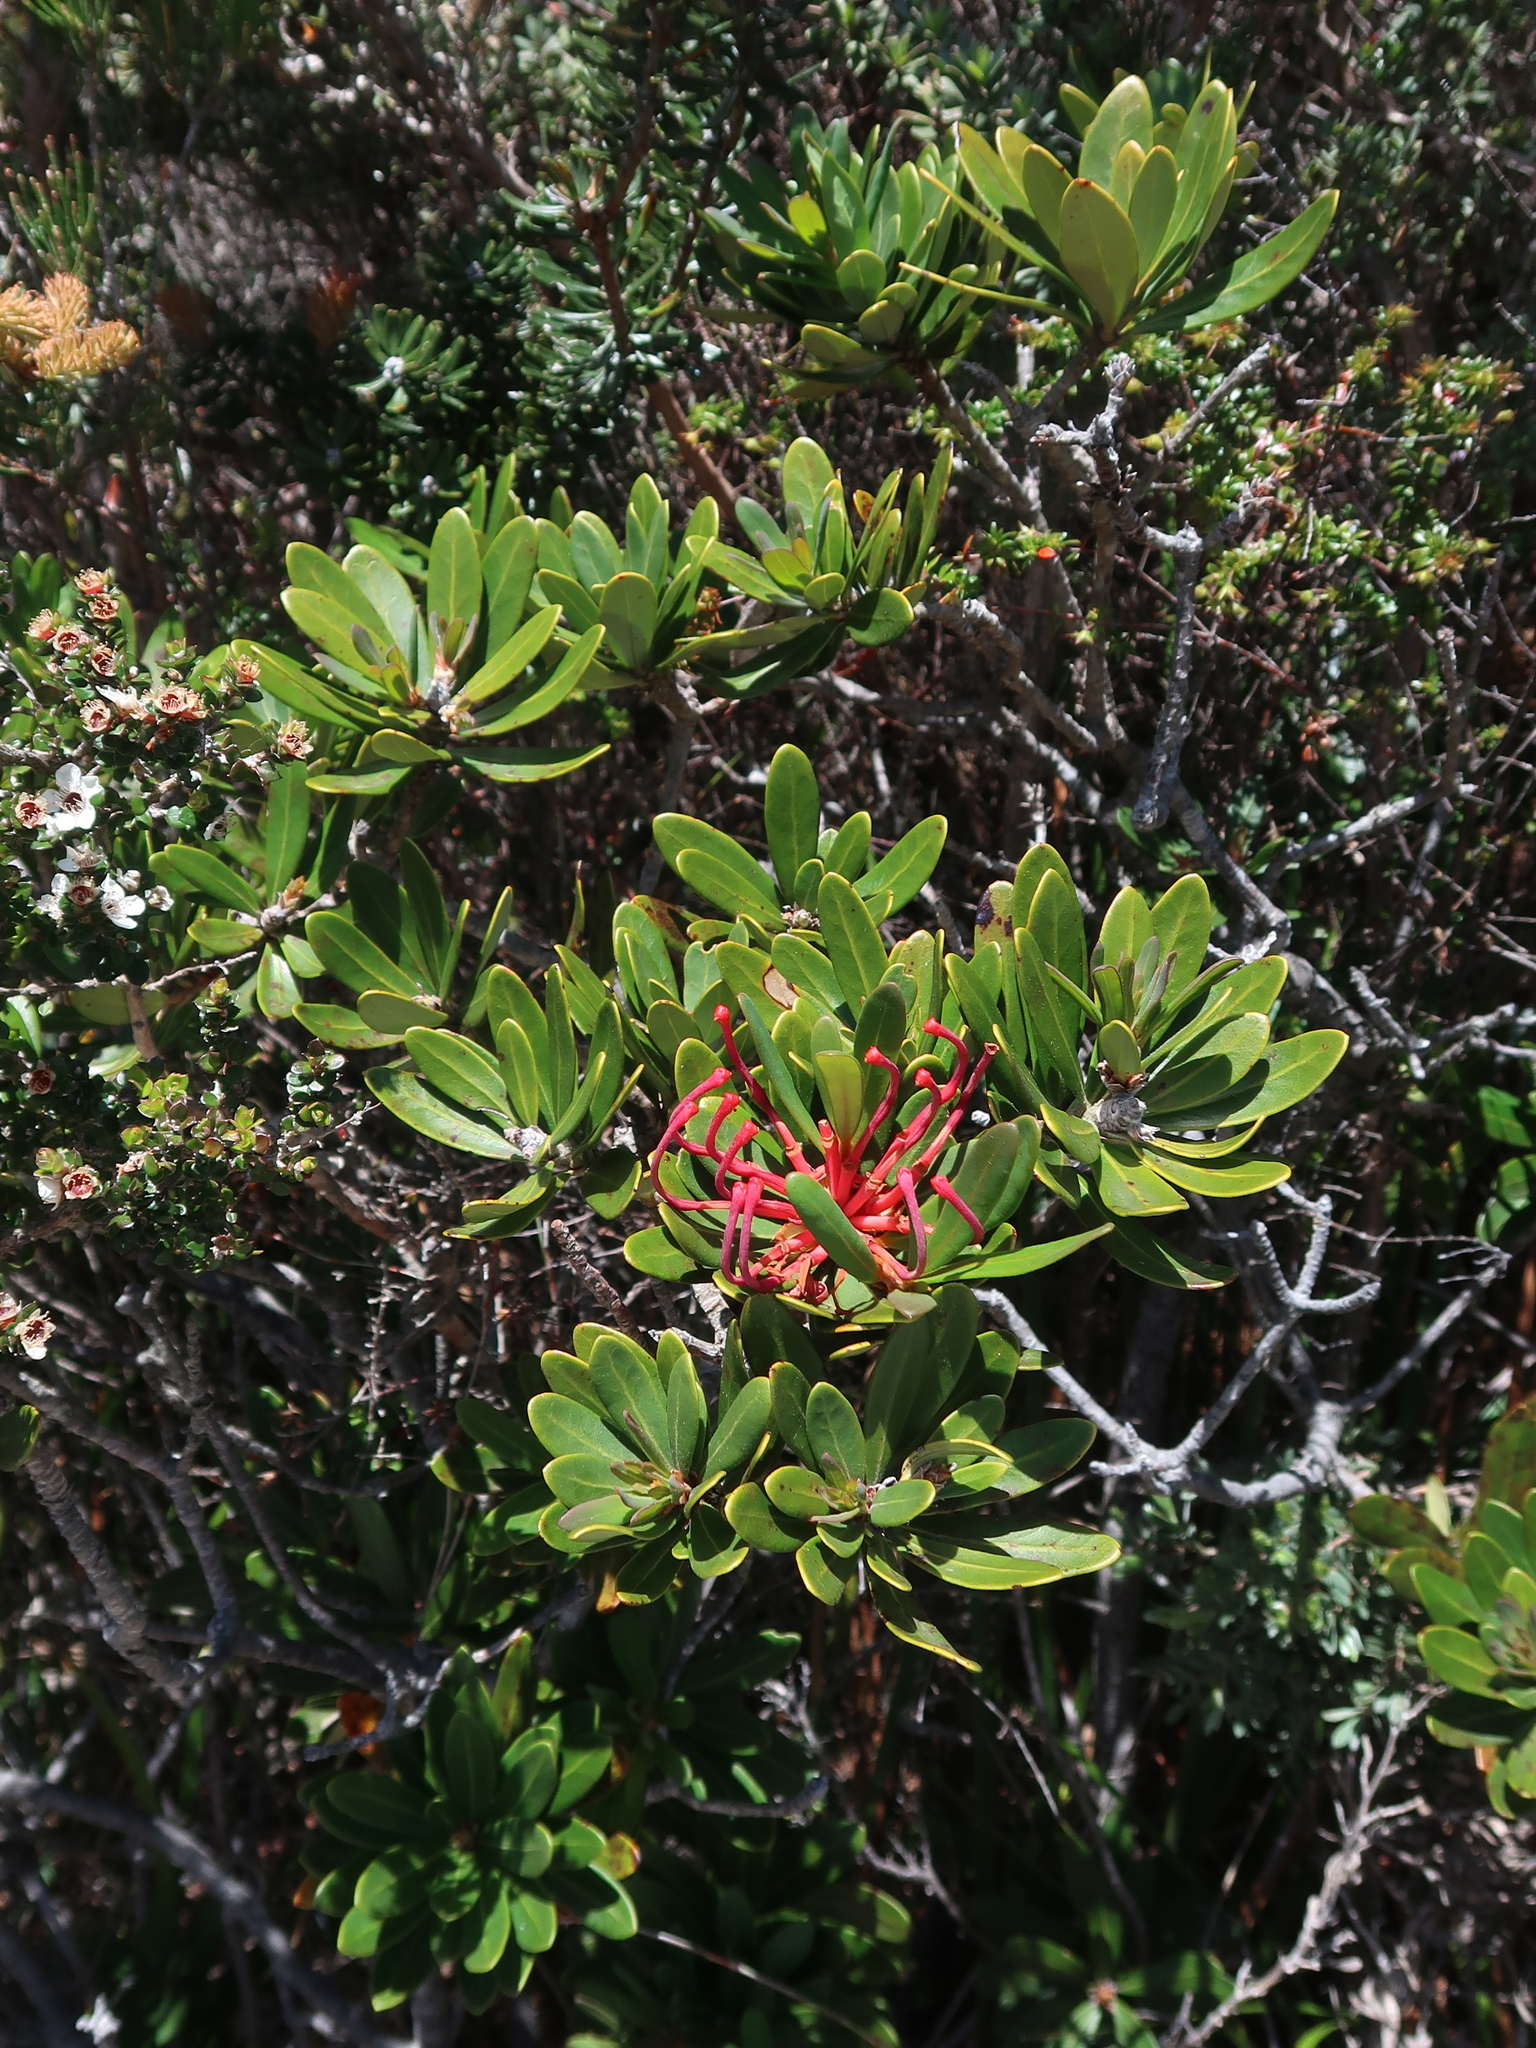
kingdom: Plantae
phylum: Tracheophyta
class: Magnoliopsida
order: Proteales
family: Proteaceae
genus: Telopea
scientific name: Telopea truncata
